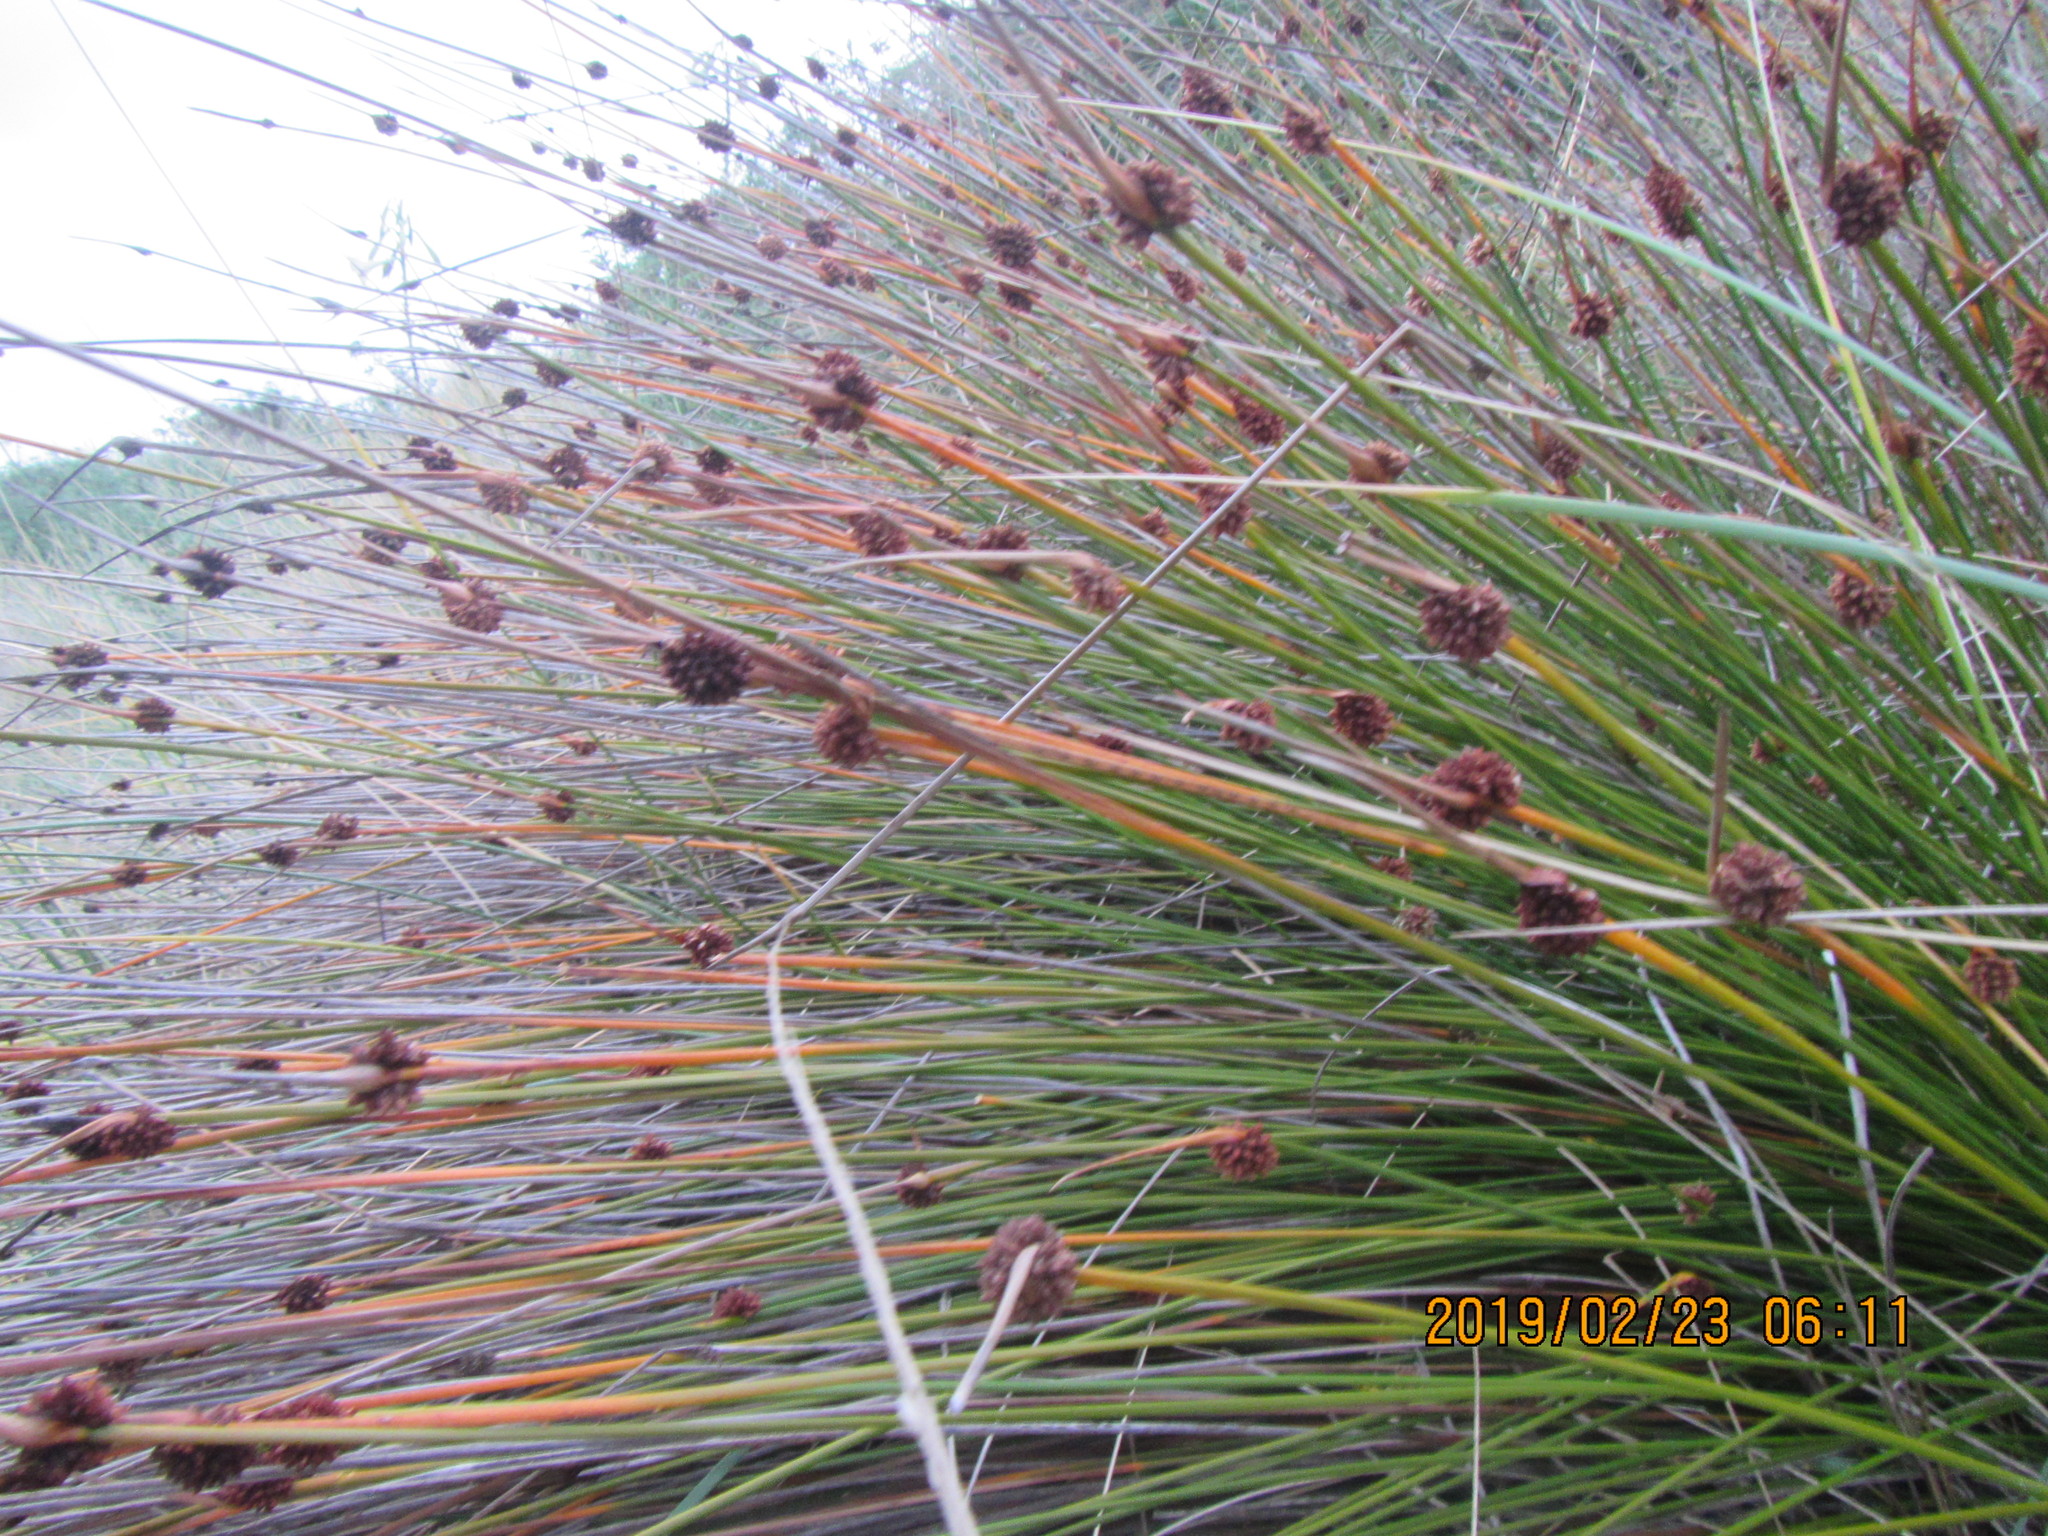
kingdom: Plantae
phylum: Tracheophyta
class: Liliopsida
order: Poales
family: Cyperaceae
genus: Ficinia
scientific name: Ficinia nodosa
